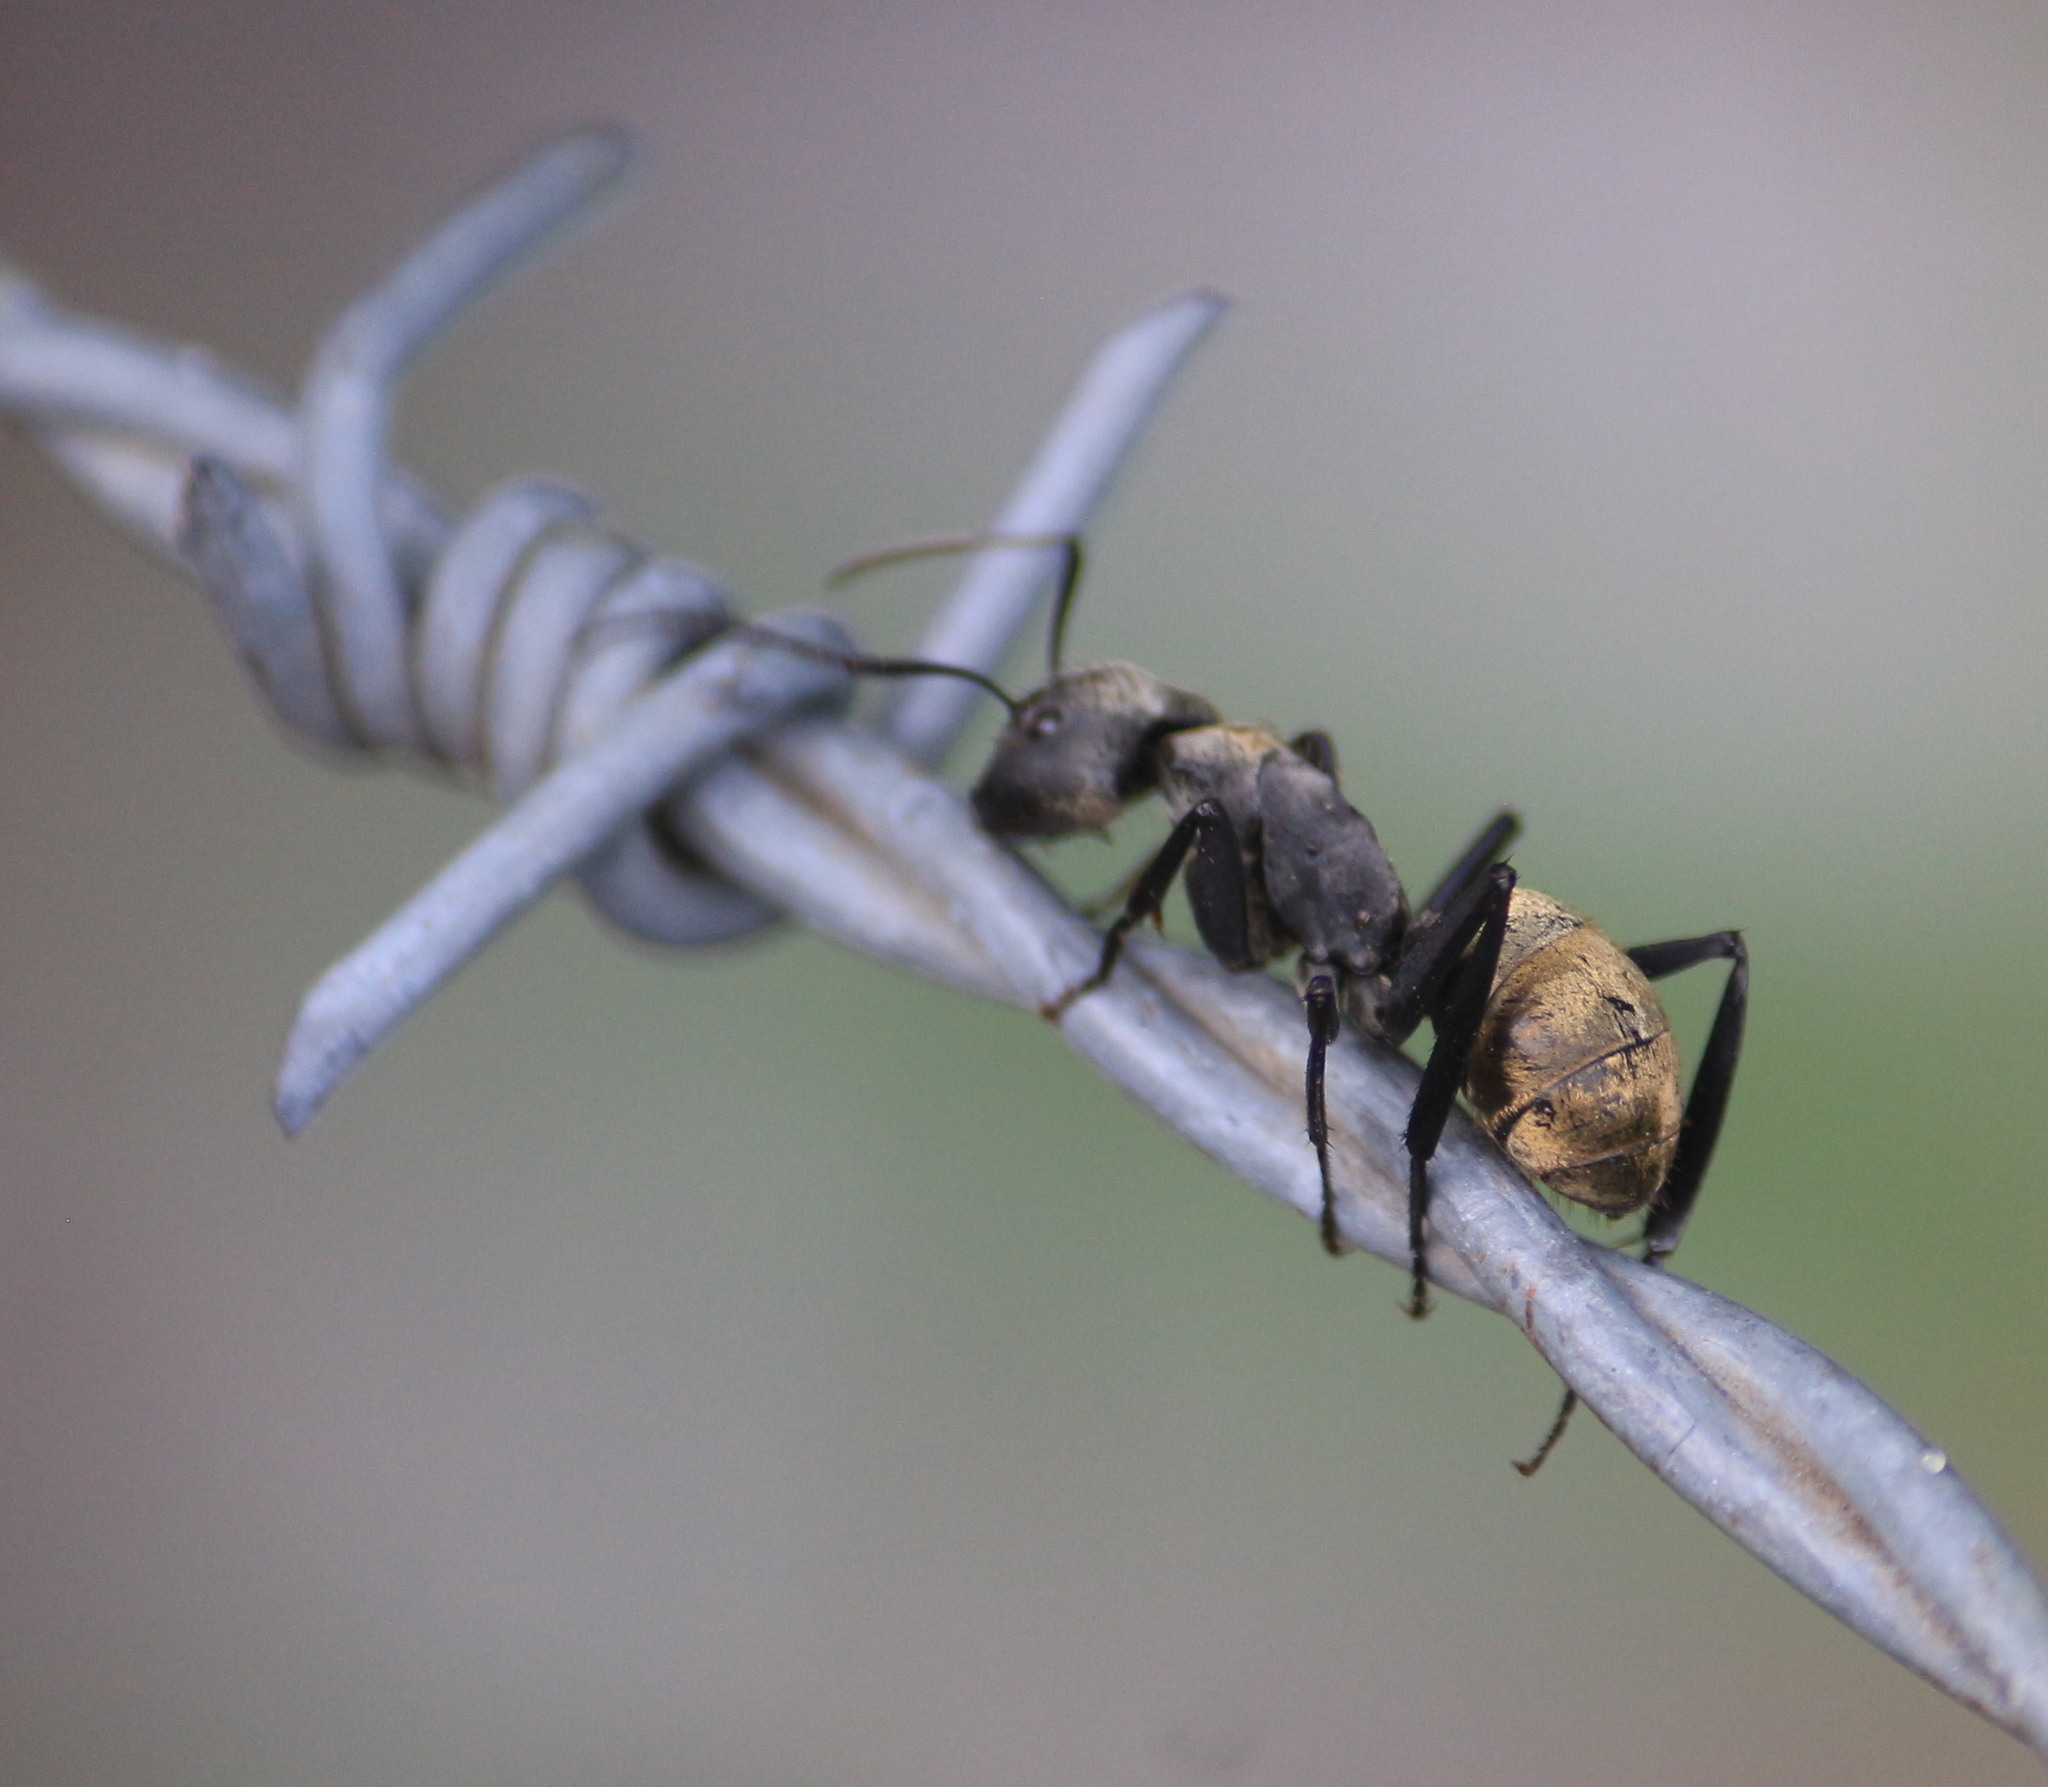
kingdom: Animalia
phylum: Arthropoda
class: Insecta
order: Hymenoptera
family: Formicidae
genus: Camponotus
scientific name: Camponotus sericeiventris
